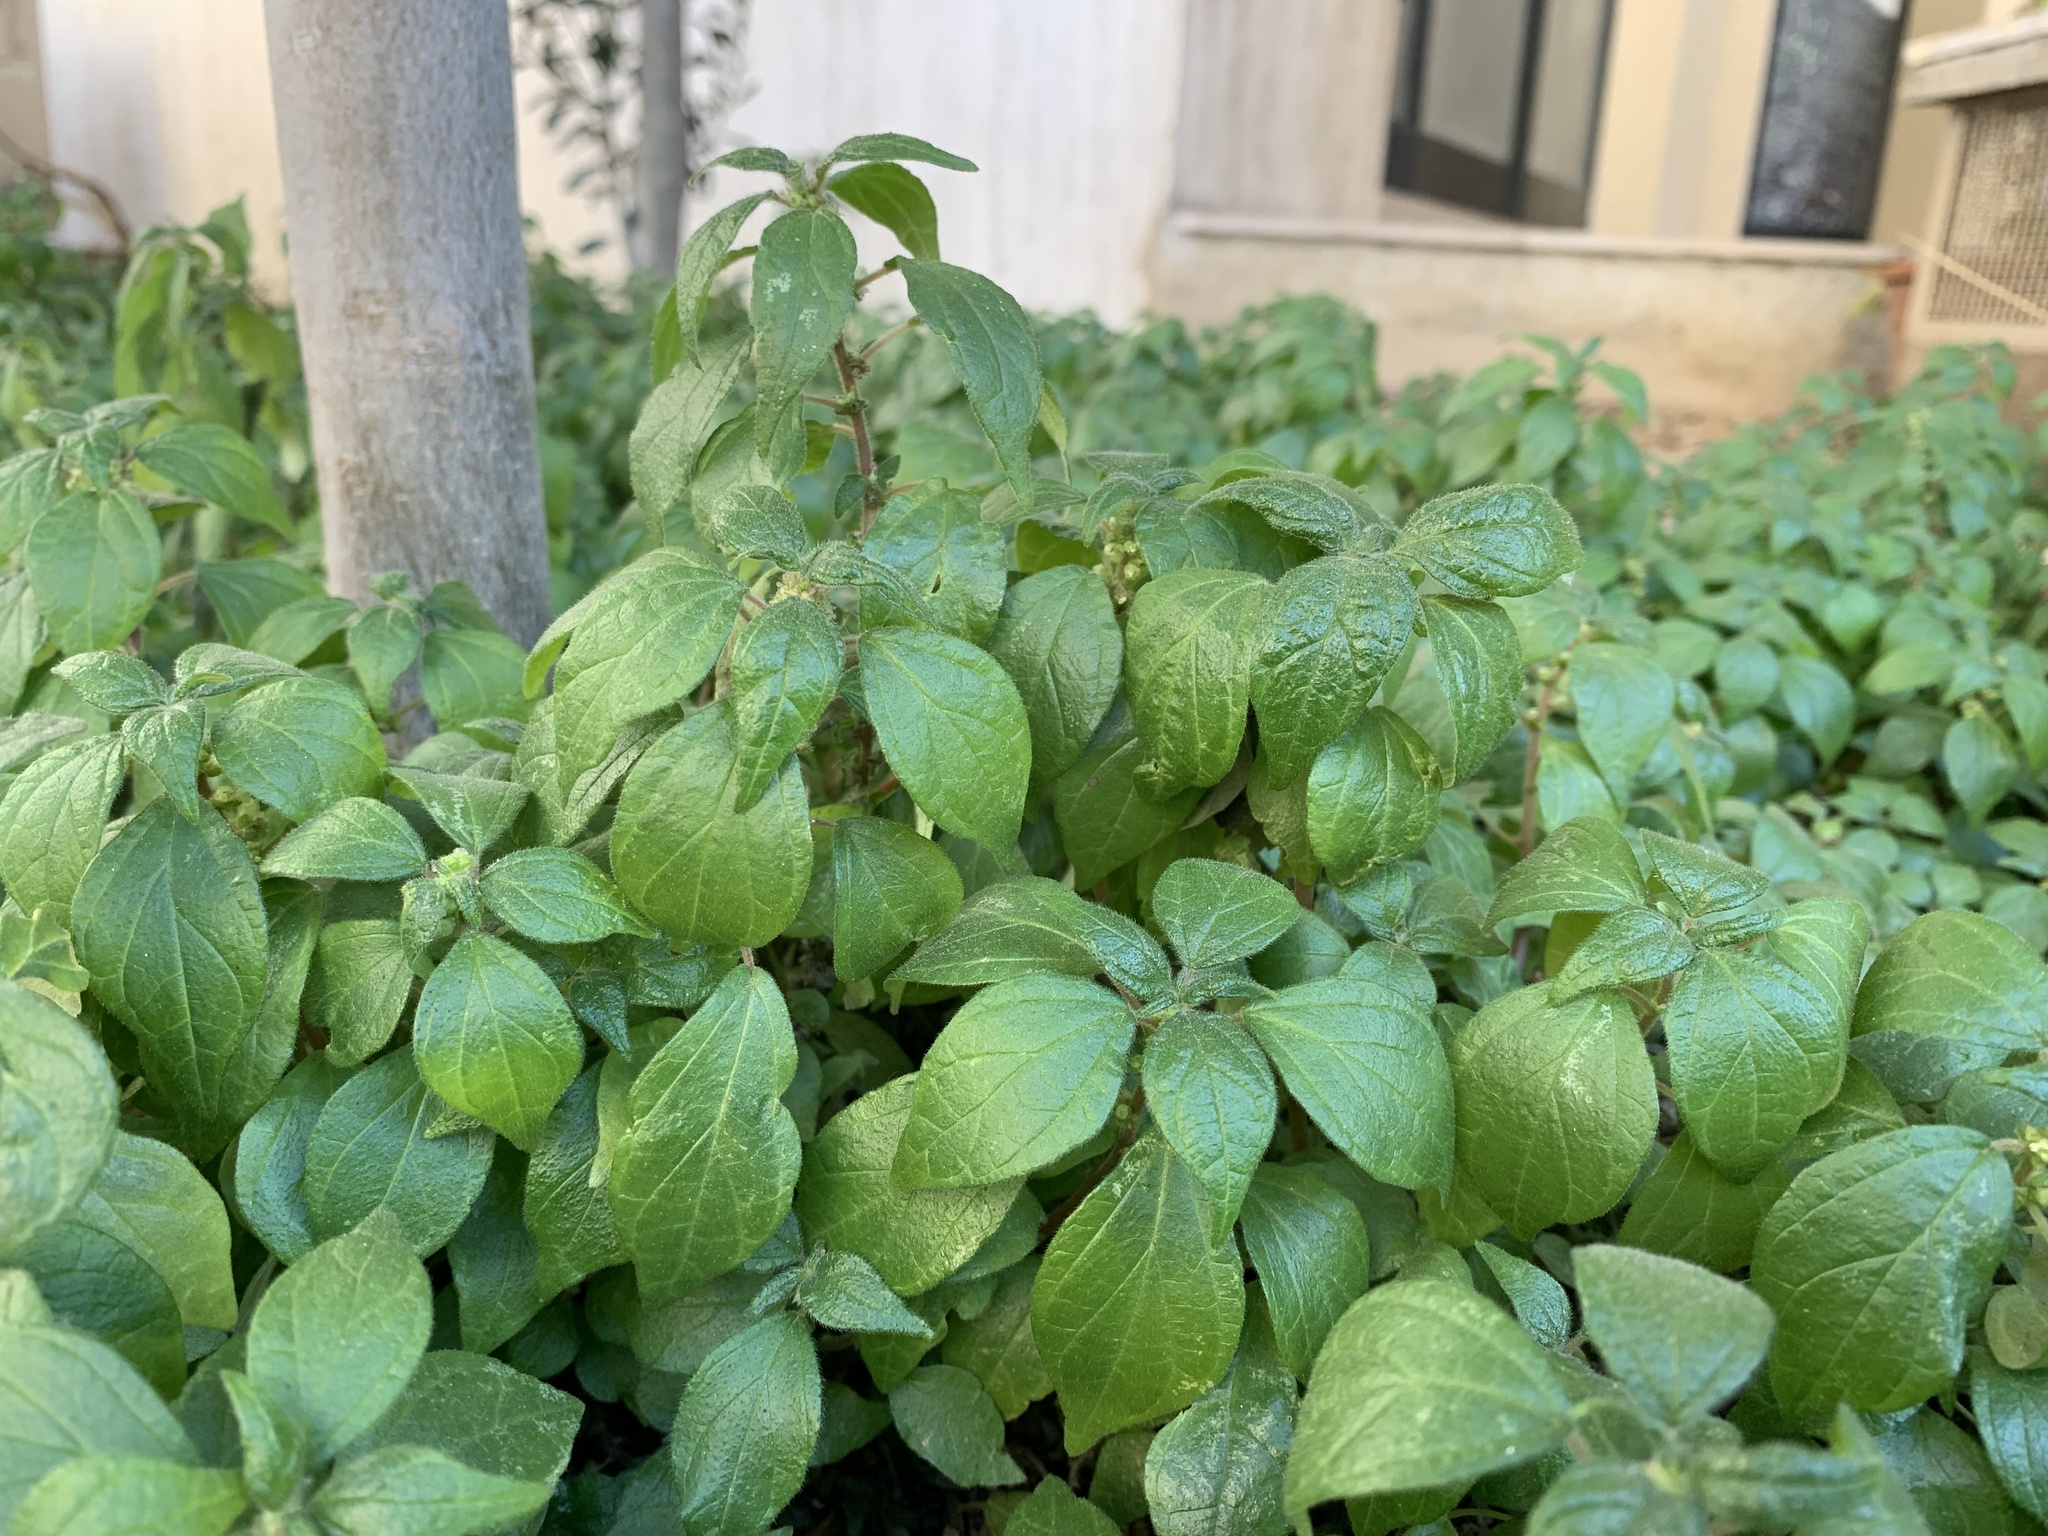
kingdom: Plantae
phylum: Tracheophyta
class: Magnoliopsida
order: Rosales
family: Urticaceae
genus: Parietaria
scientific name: Parietaria judaica
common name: Pellitory-of-the-wall
